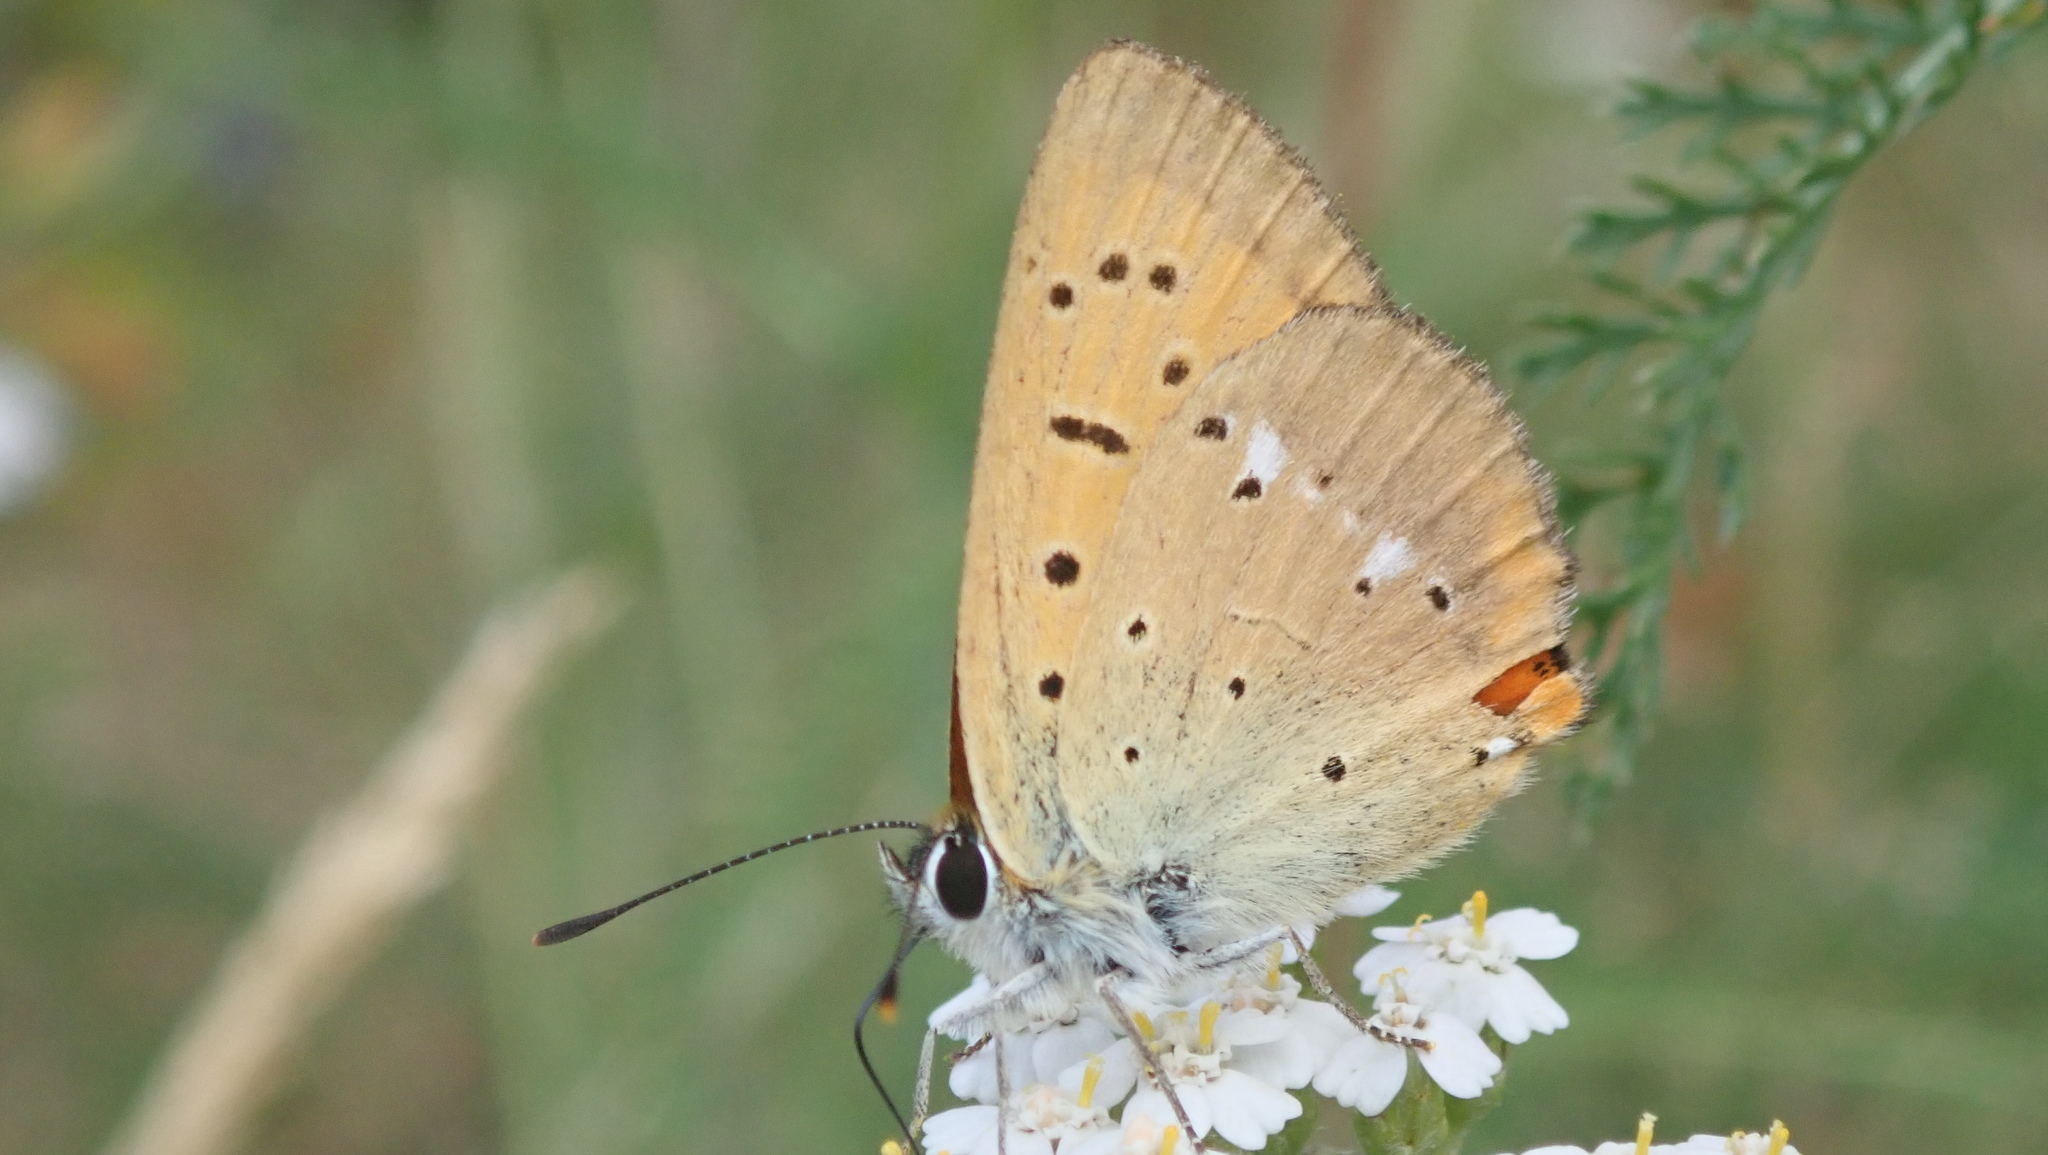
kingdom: Animalia
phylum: Arthropoda
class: Insecta
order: Lepidoptera
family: Lycaenidae
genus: Lycaena
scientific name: Lycaena virgaureae
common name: Scarce copper
